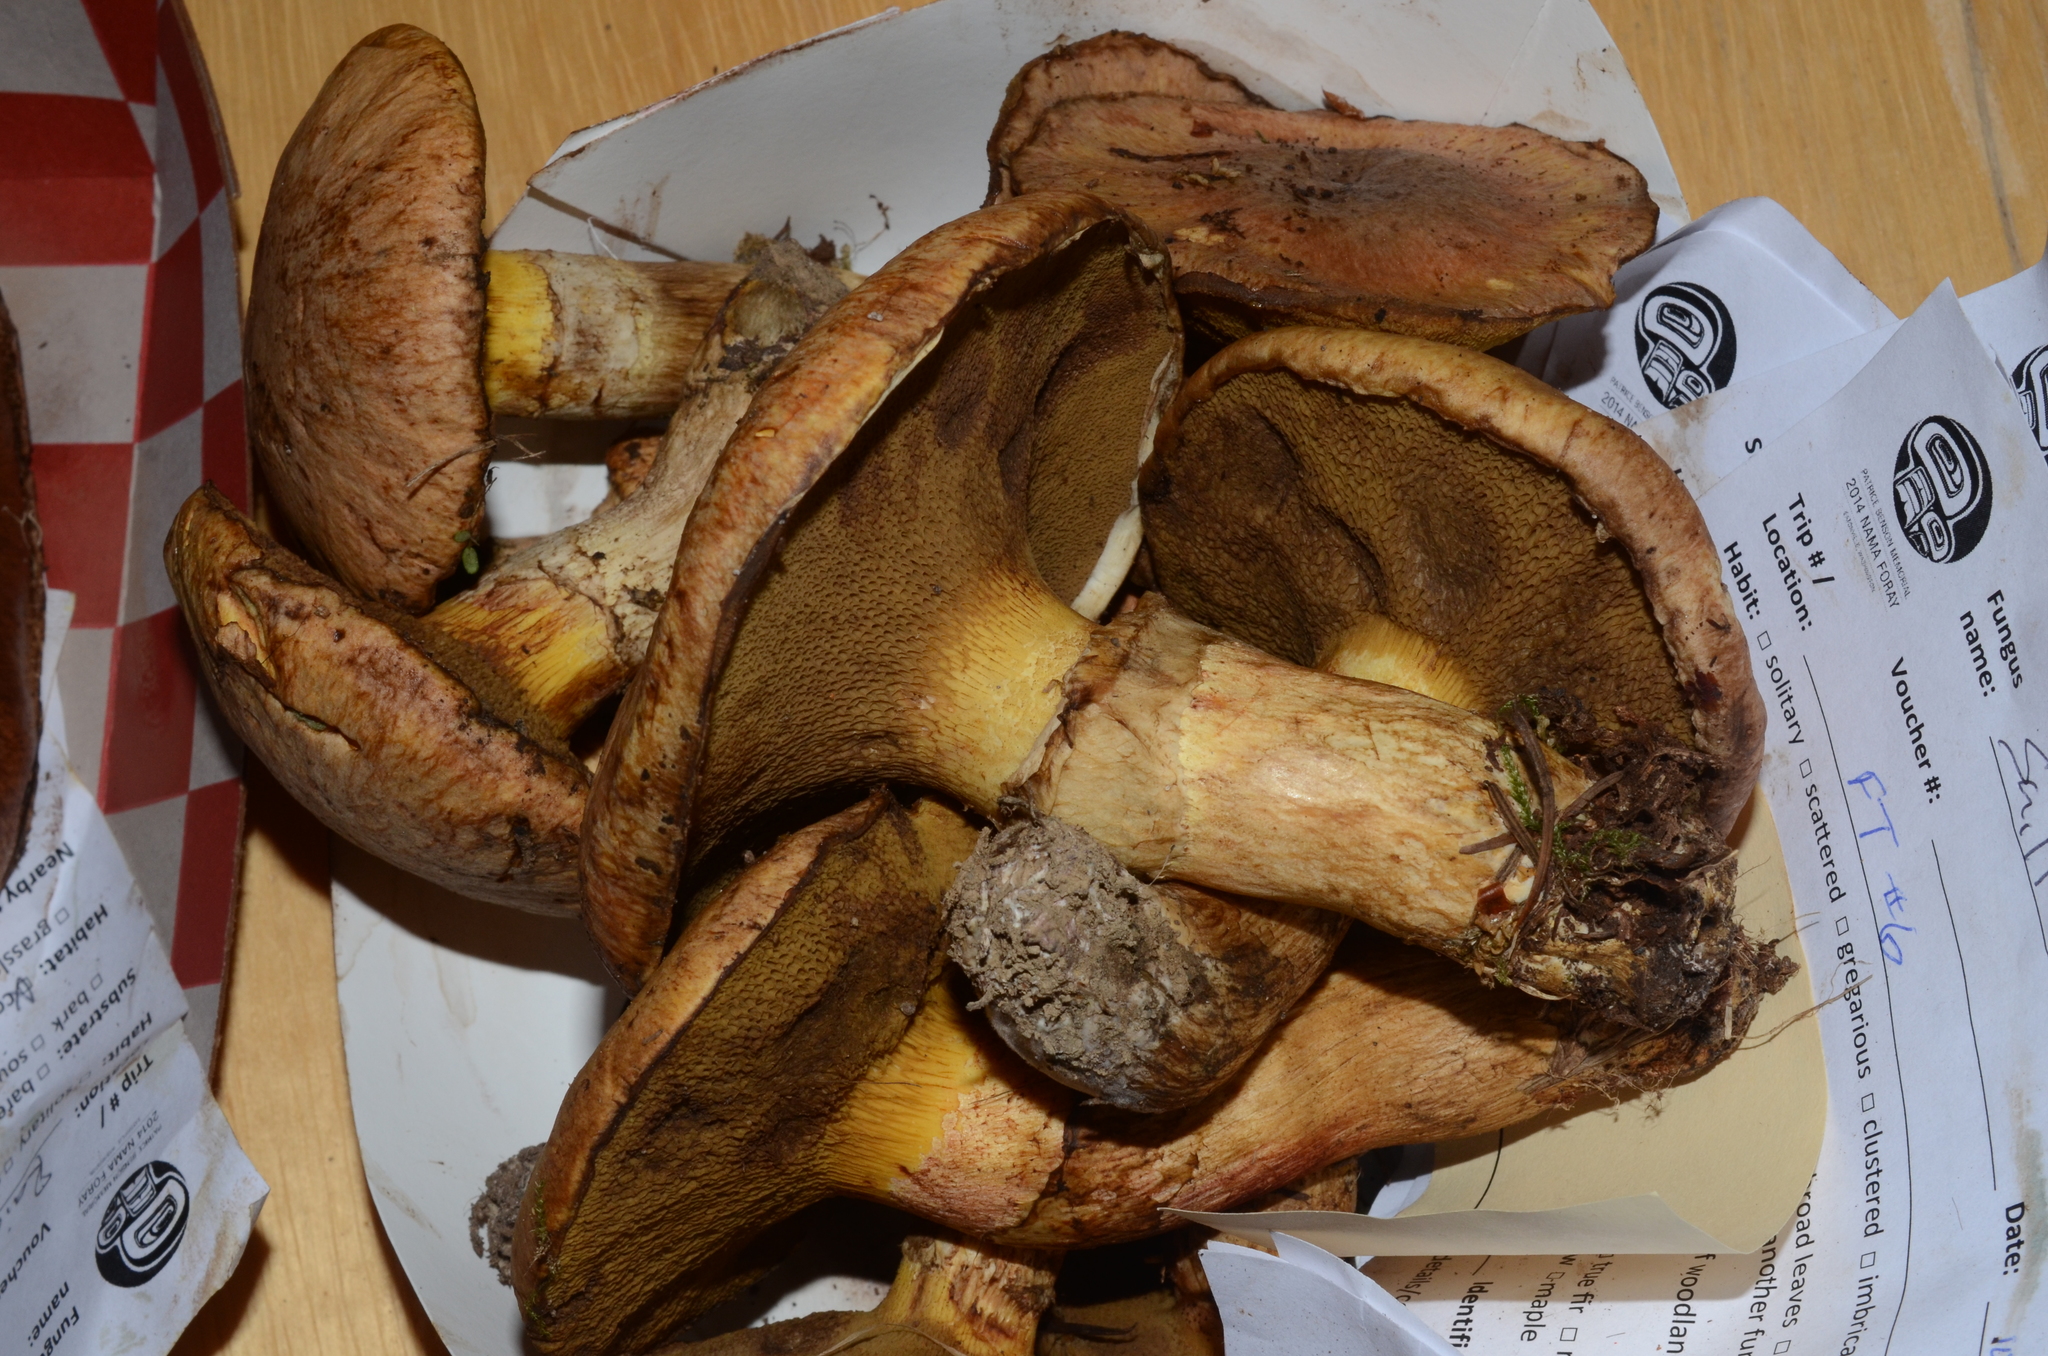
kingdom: Fungi
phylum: Basidiomycota
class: Agaricomycetes
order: Boletales
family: Suillaceae
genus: Suillus
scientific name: Suillus caerulescens
